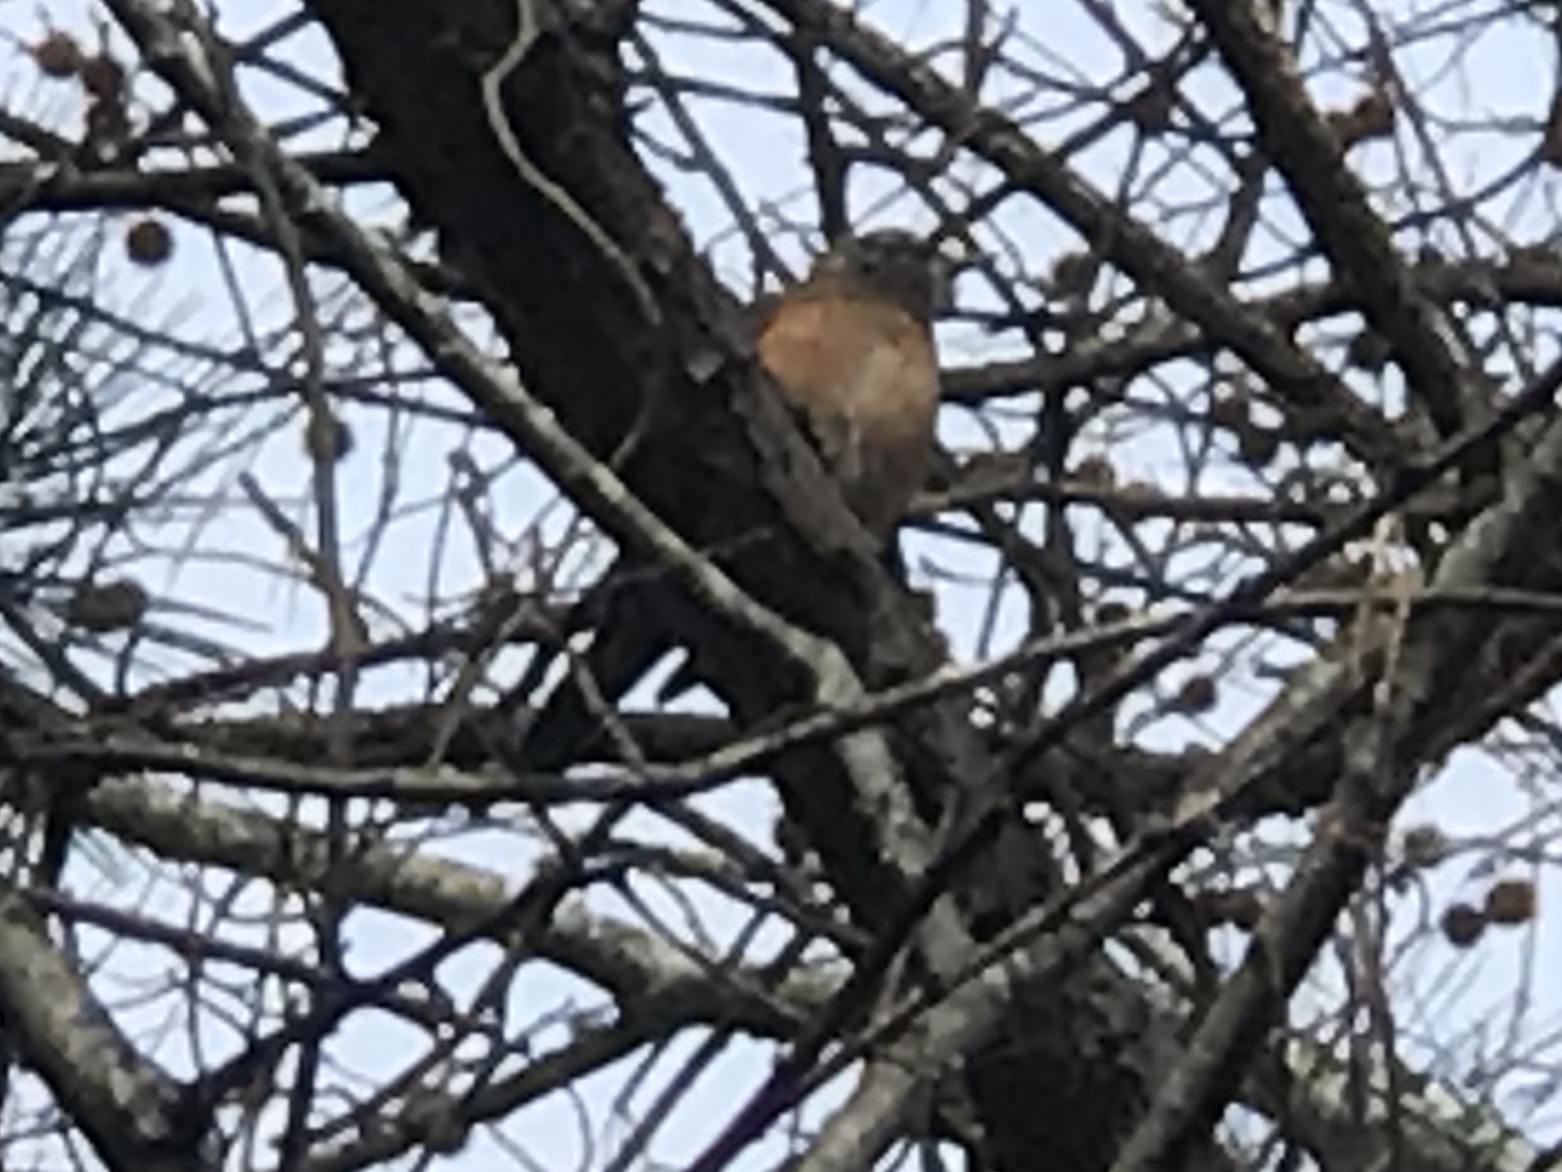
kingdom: Animalia
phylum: Chordata
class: Aves
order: Passeriformes
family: Turdidae
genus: Turdus
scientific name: Turdus migratorius
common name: American robin
